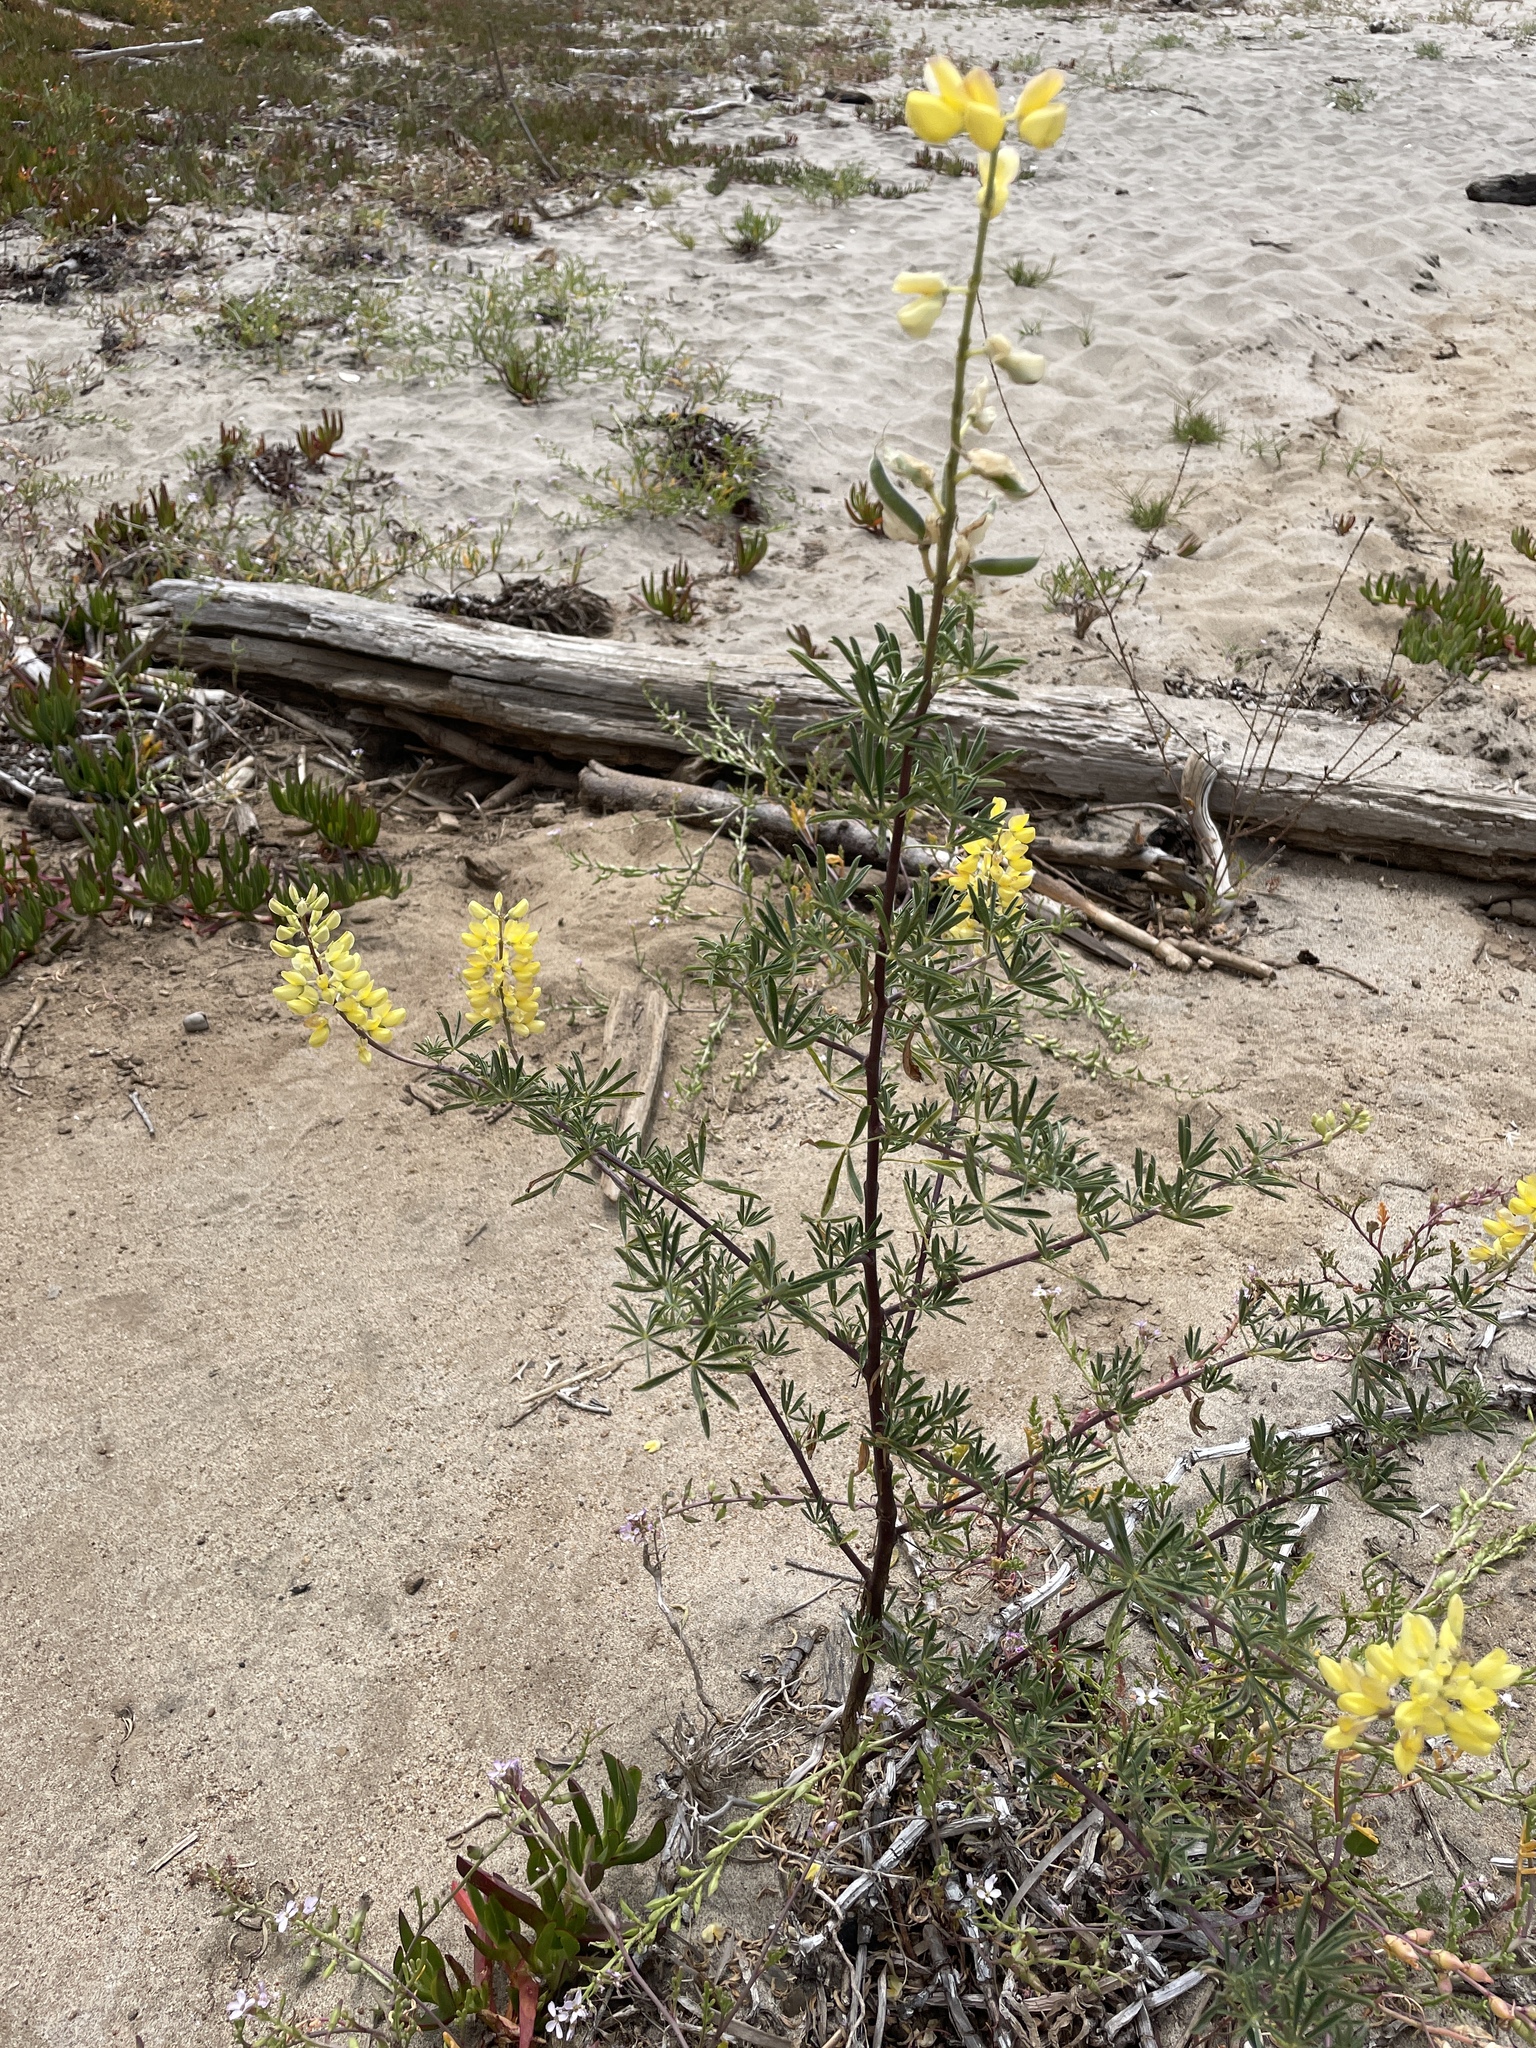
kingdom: Plantae
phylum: Tracheophyta
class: Magnoliopsida
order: Fabales
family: Fabaceae
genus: Lupinus
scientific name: Lupinus arboreus
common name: Yellow bush lupine
